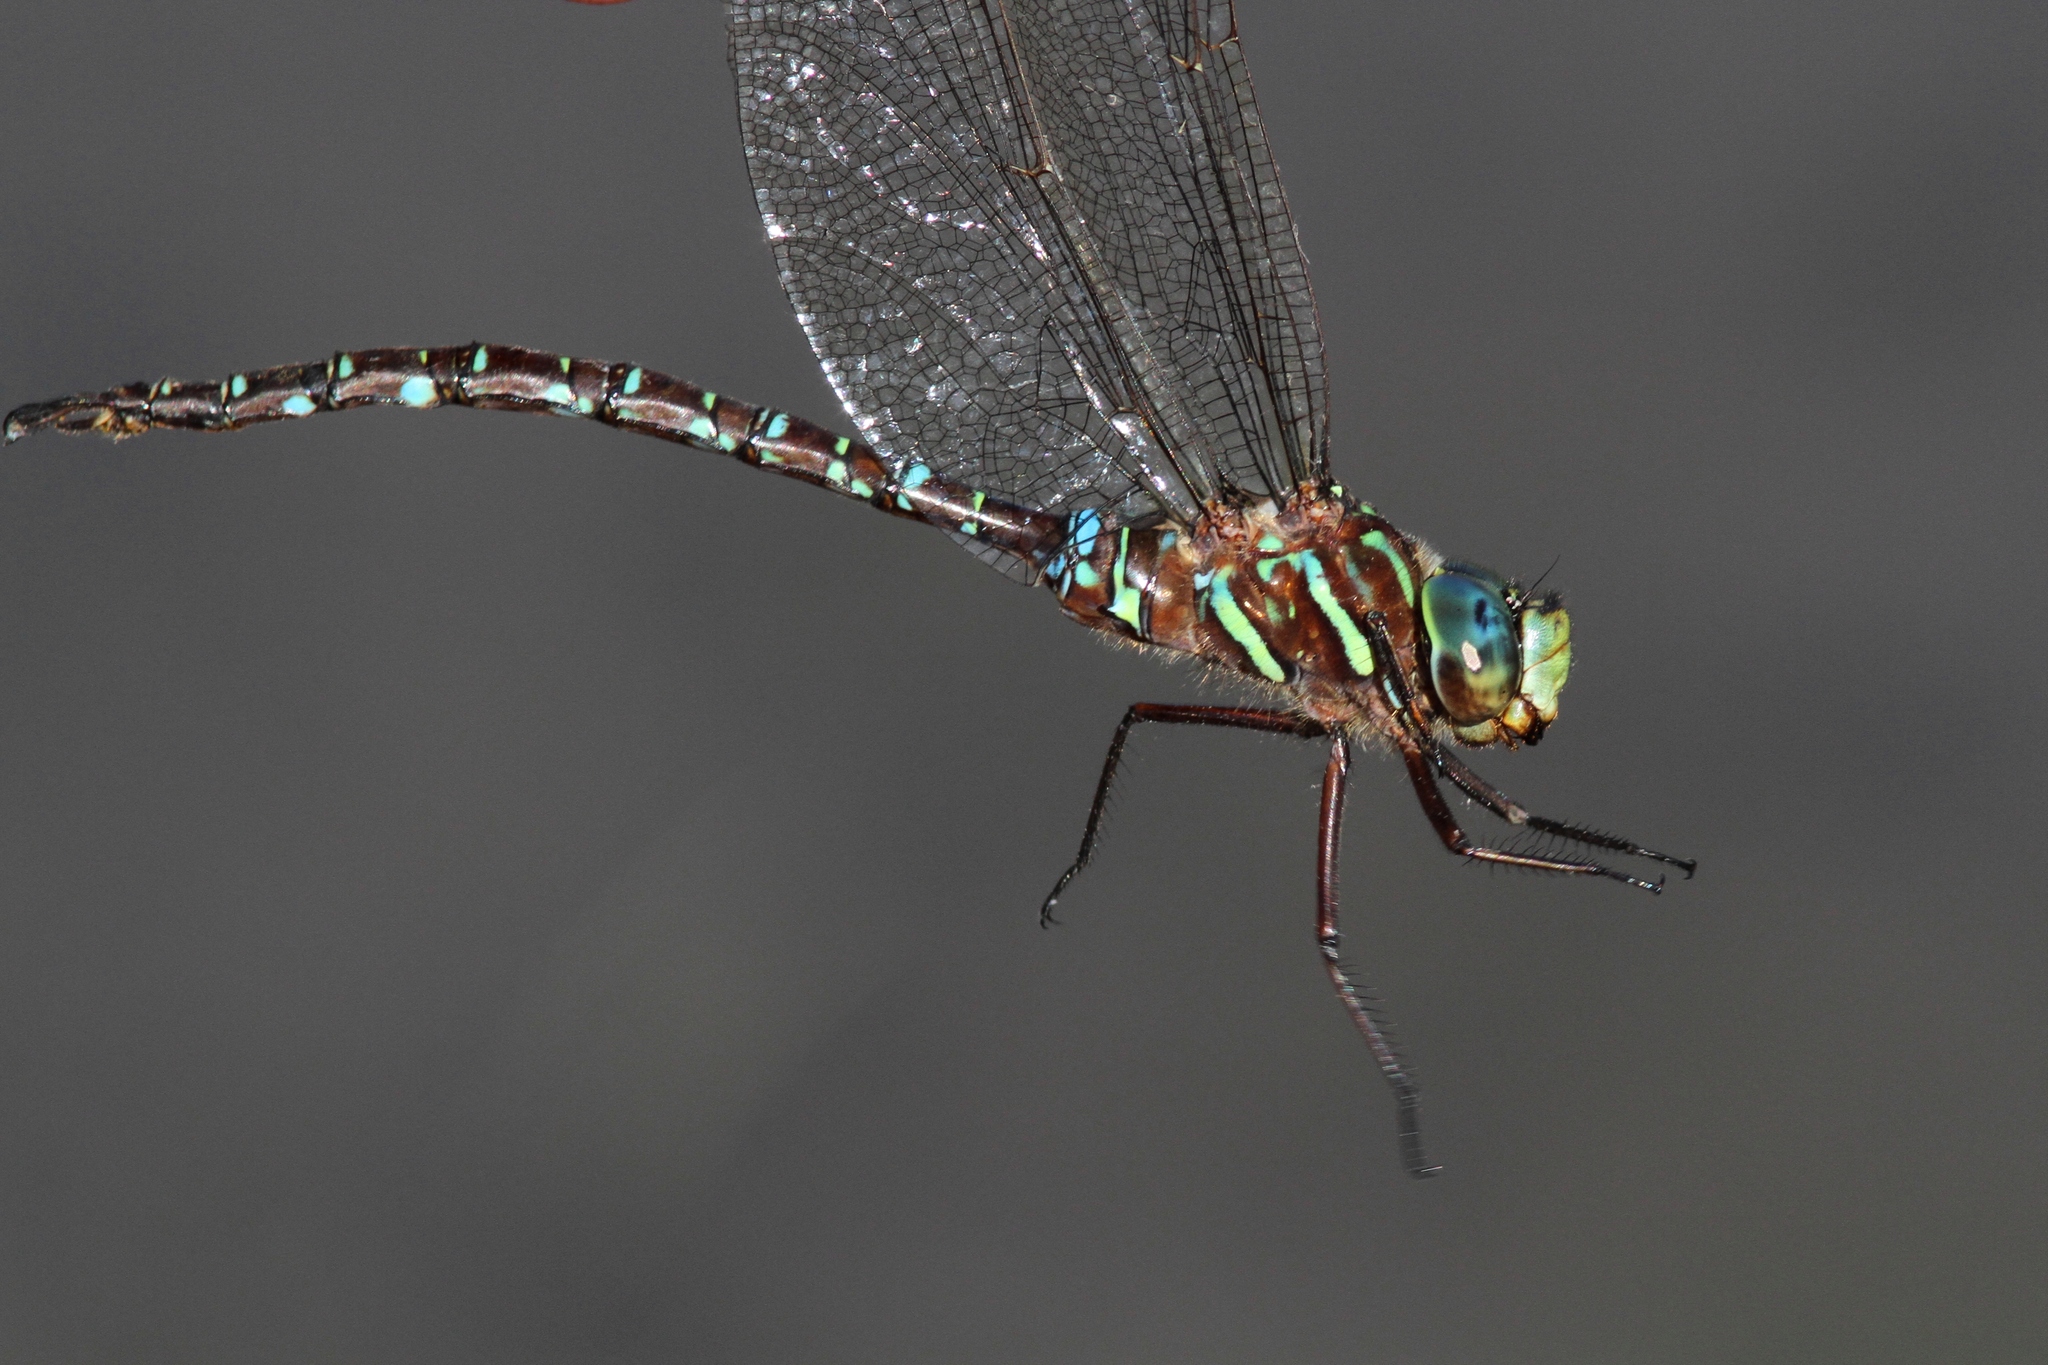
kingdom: Animalia
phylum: Arthropoda
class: Insecta
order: Odonata
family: Aeshnidae
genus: Aeshna
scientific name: Aeshna umbrosa
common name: Shadow darner
